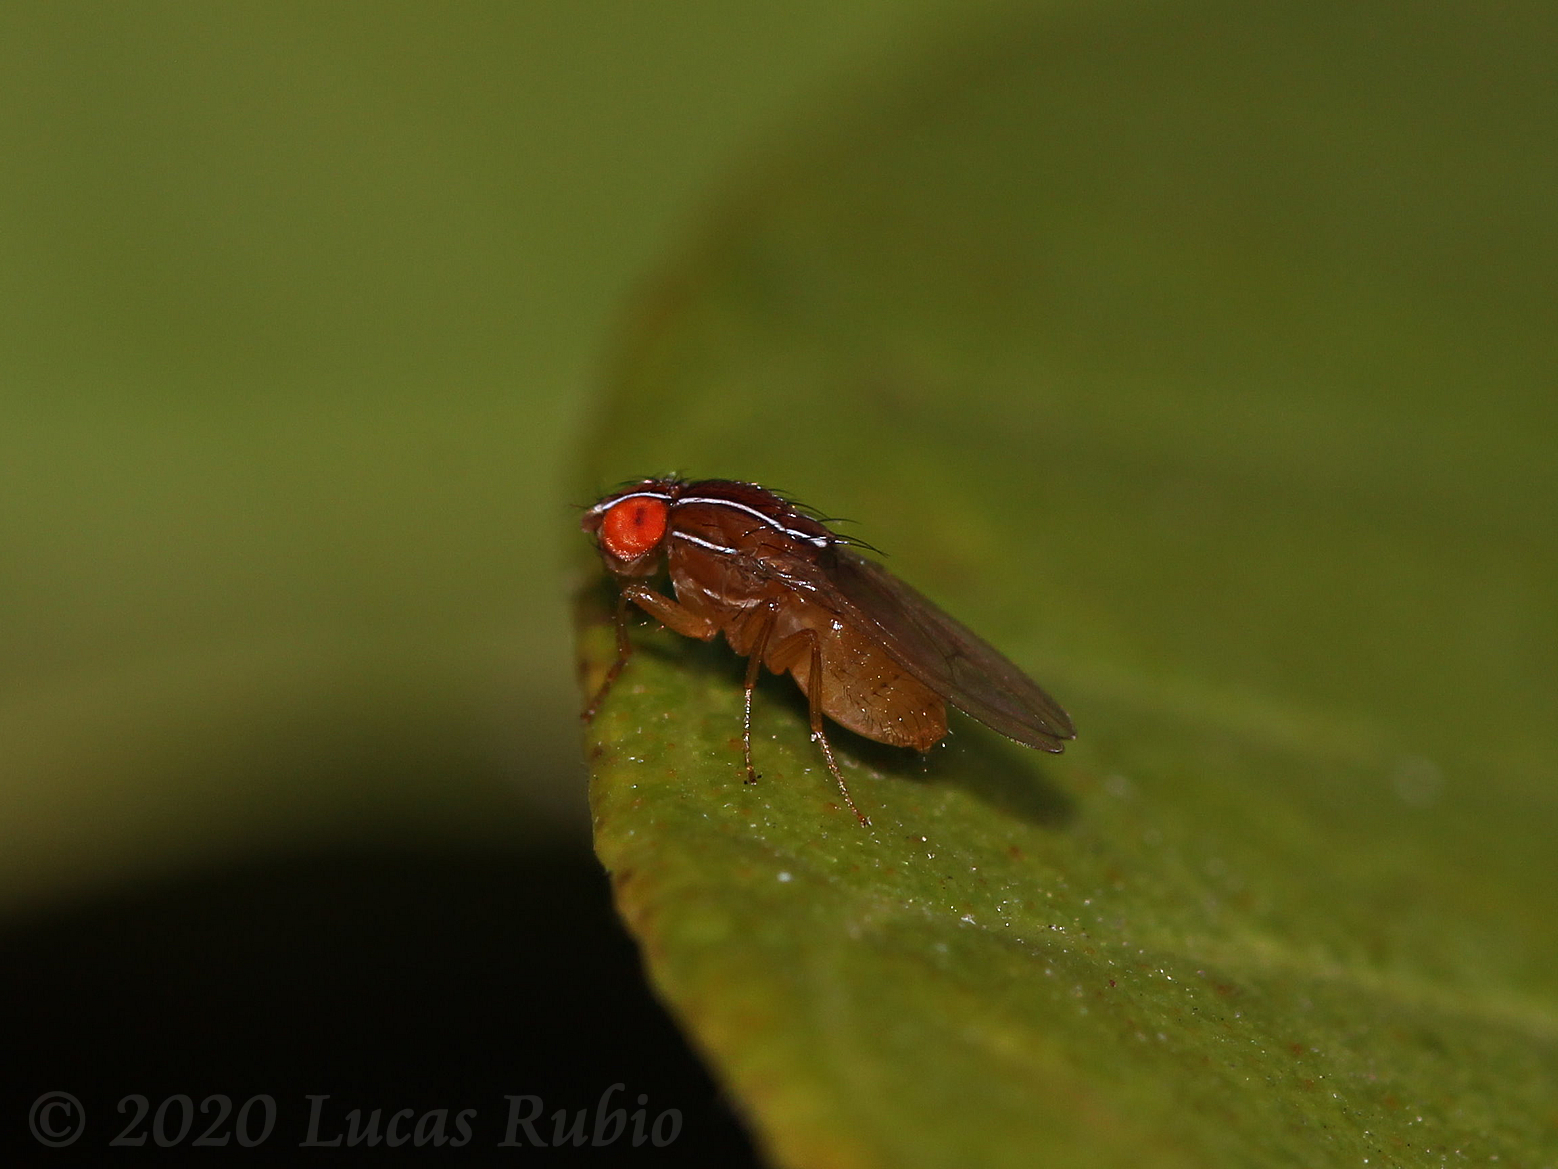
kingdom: Animalia
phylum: Arthropoda
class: Insecta
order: Diptera
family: Drosophilidae
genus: Zaprionus
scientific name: Zaprionus indianus
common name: African fig fly
